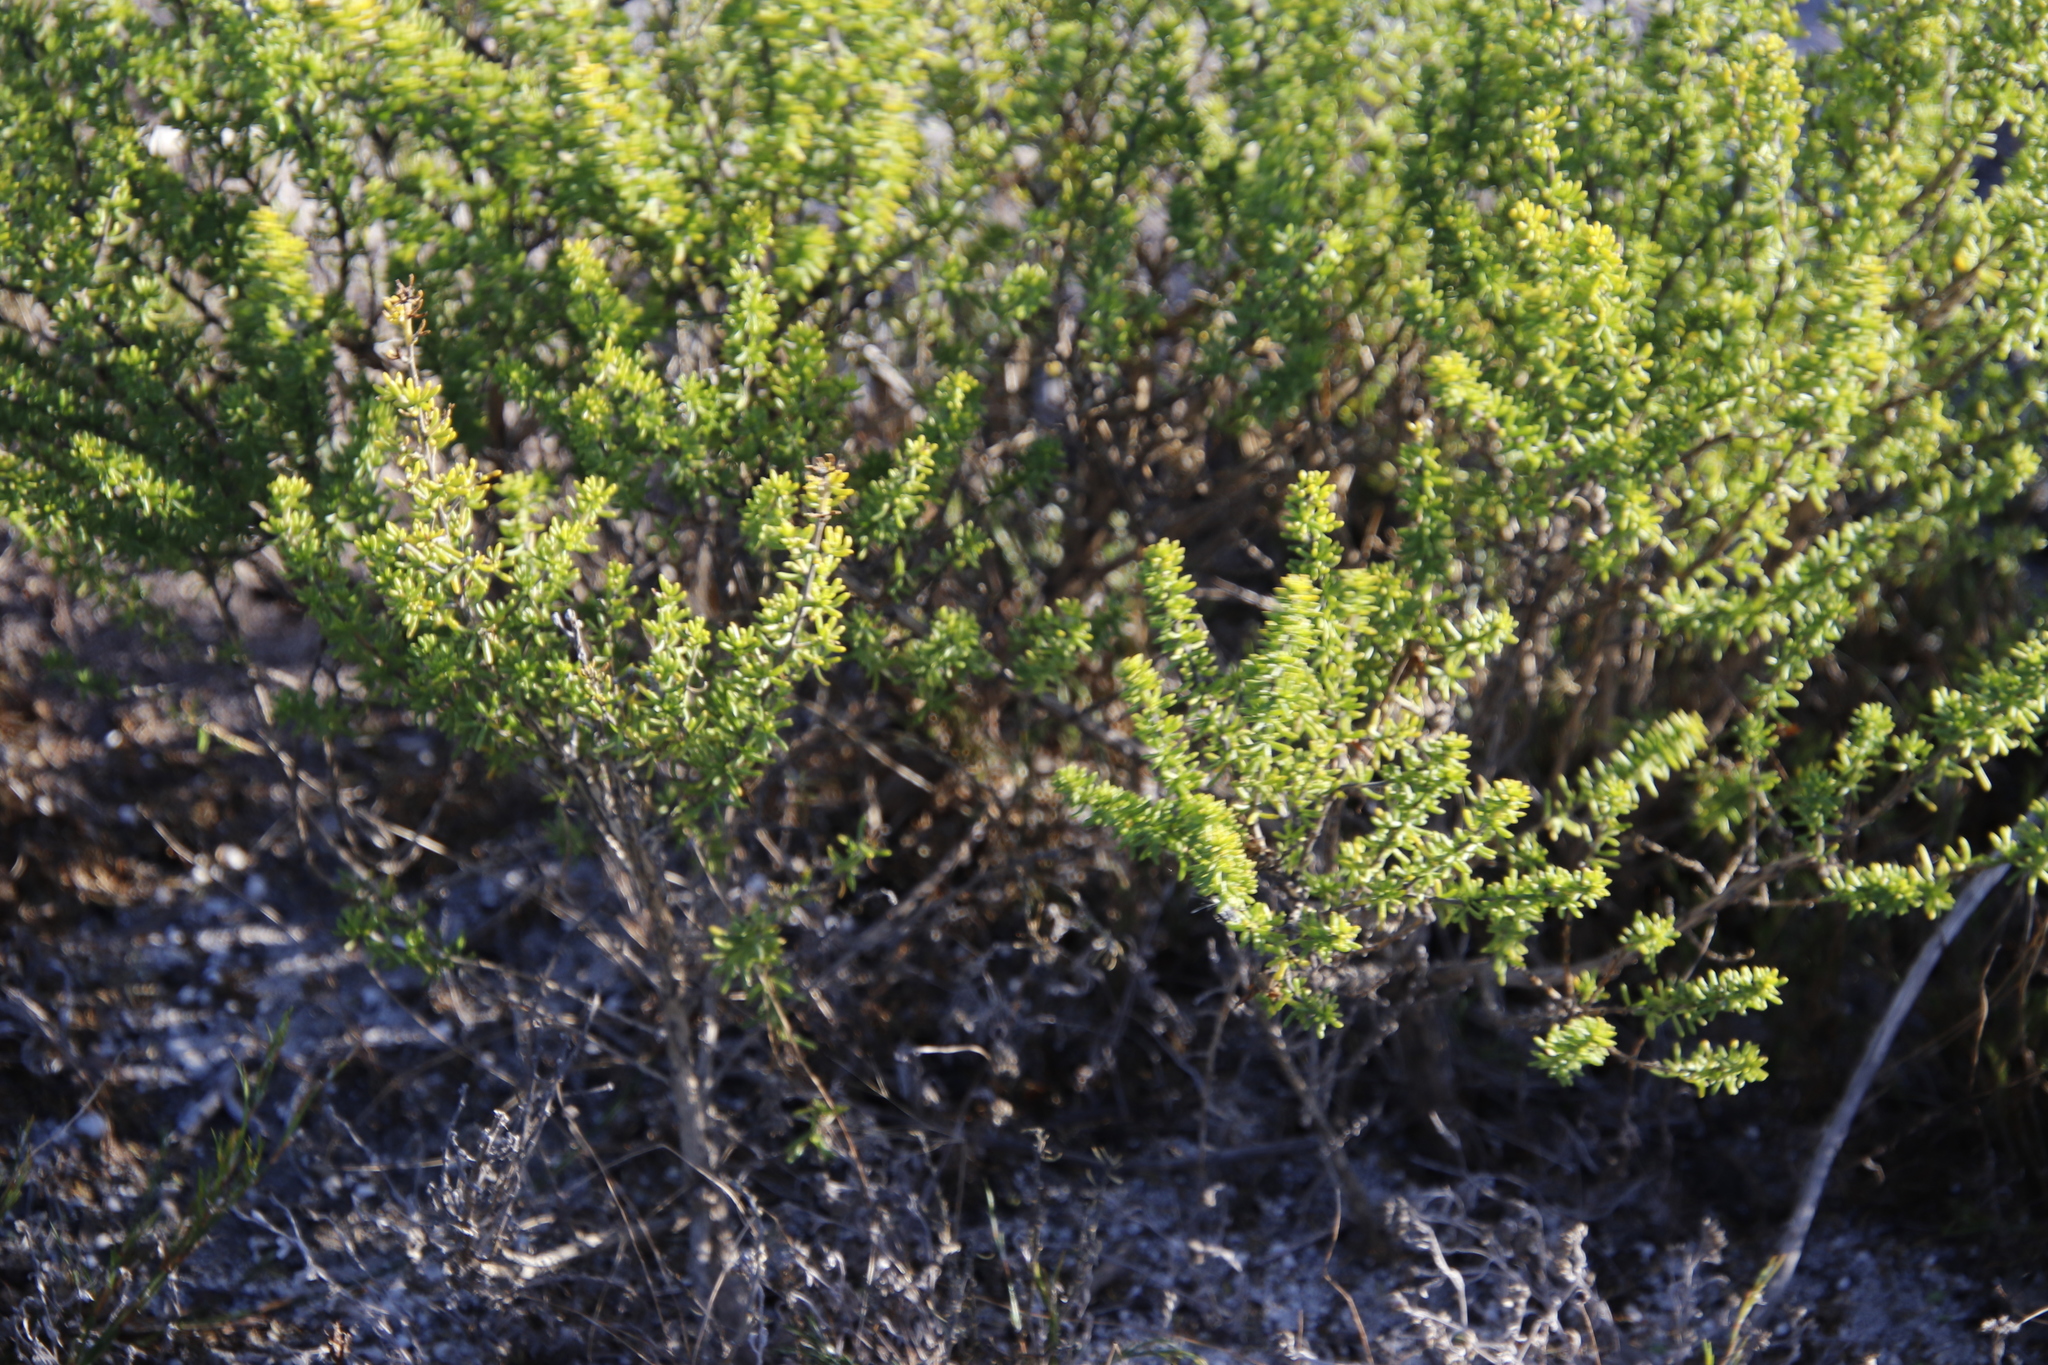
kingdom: Plantae
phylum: Tracheophyta
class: Magnoliopsida
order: Fabales
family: Fabaceae
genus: Aspalathus
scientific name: Aspalathus carnosa
